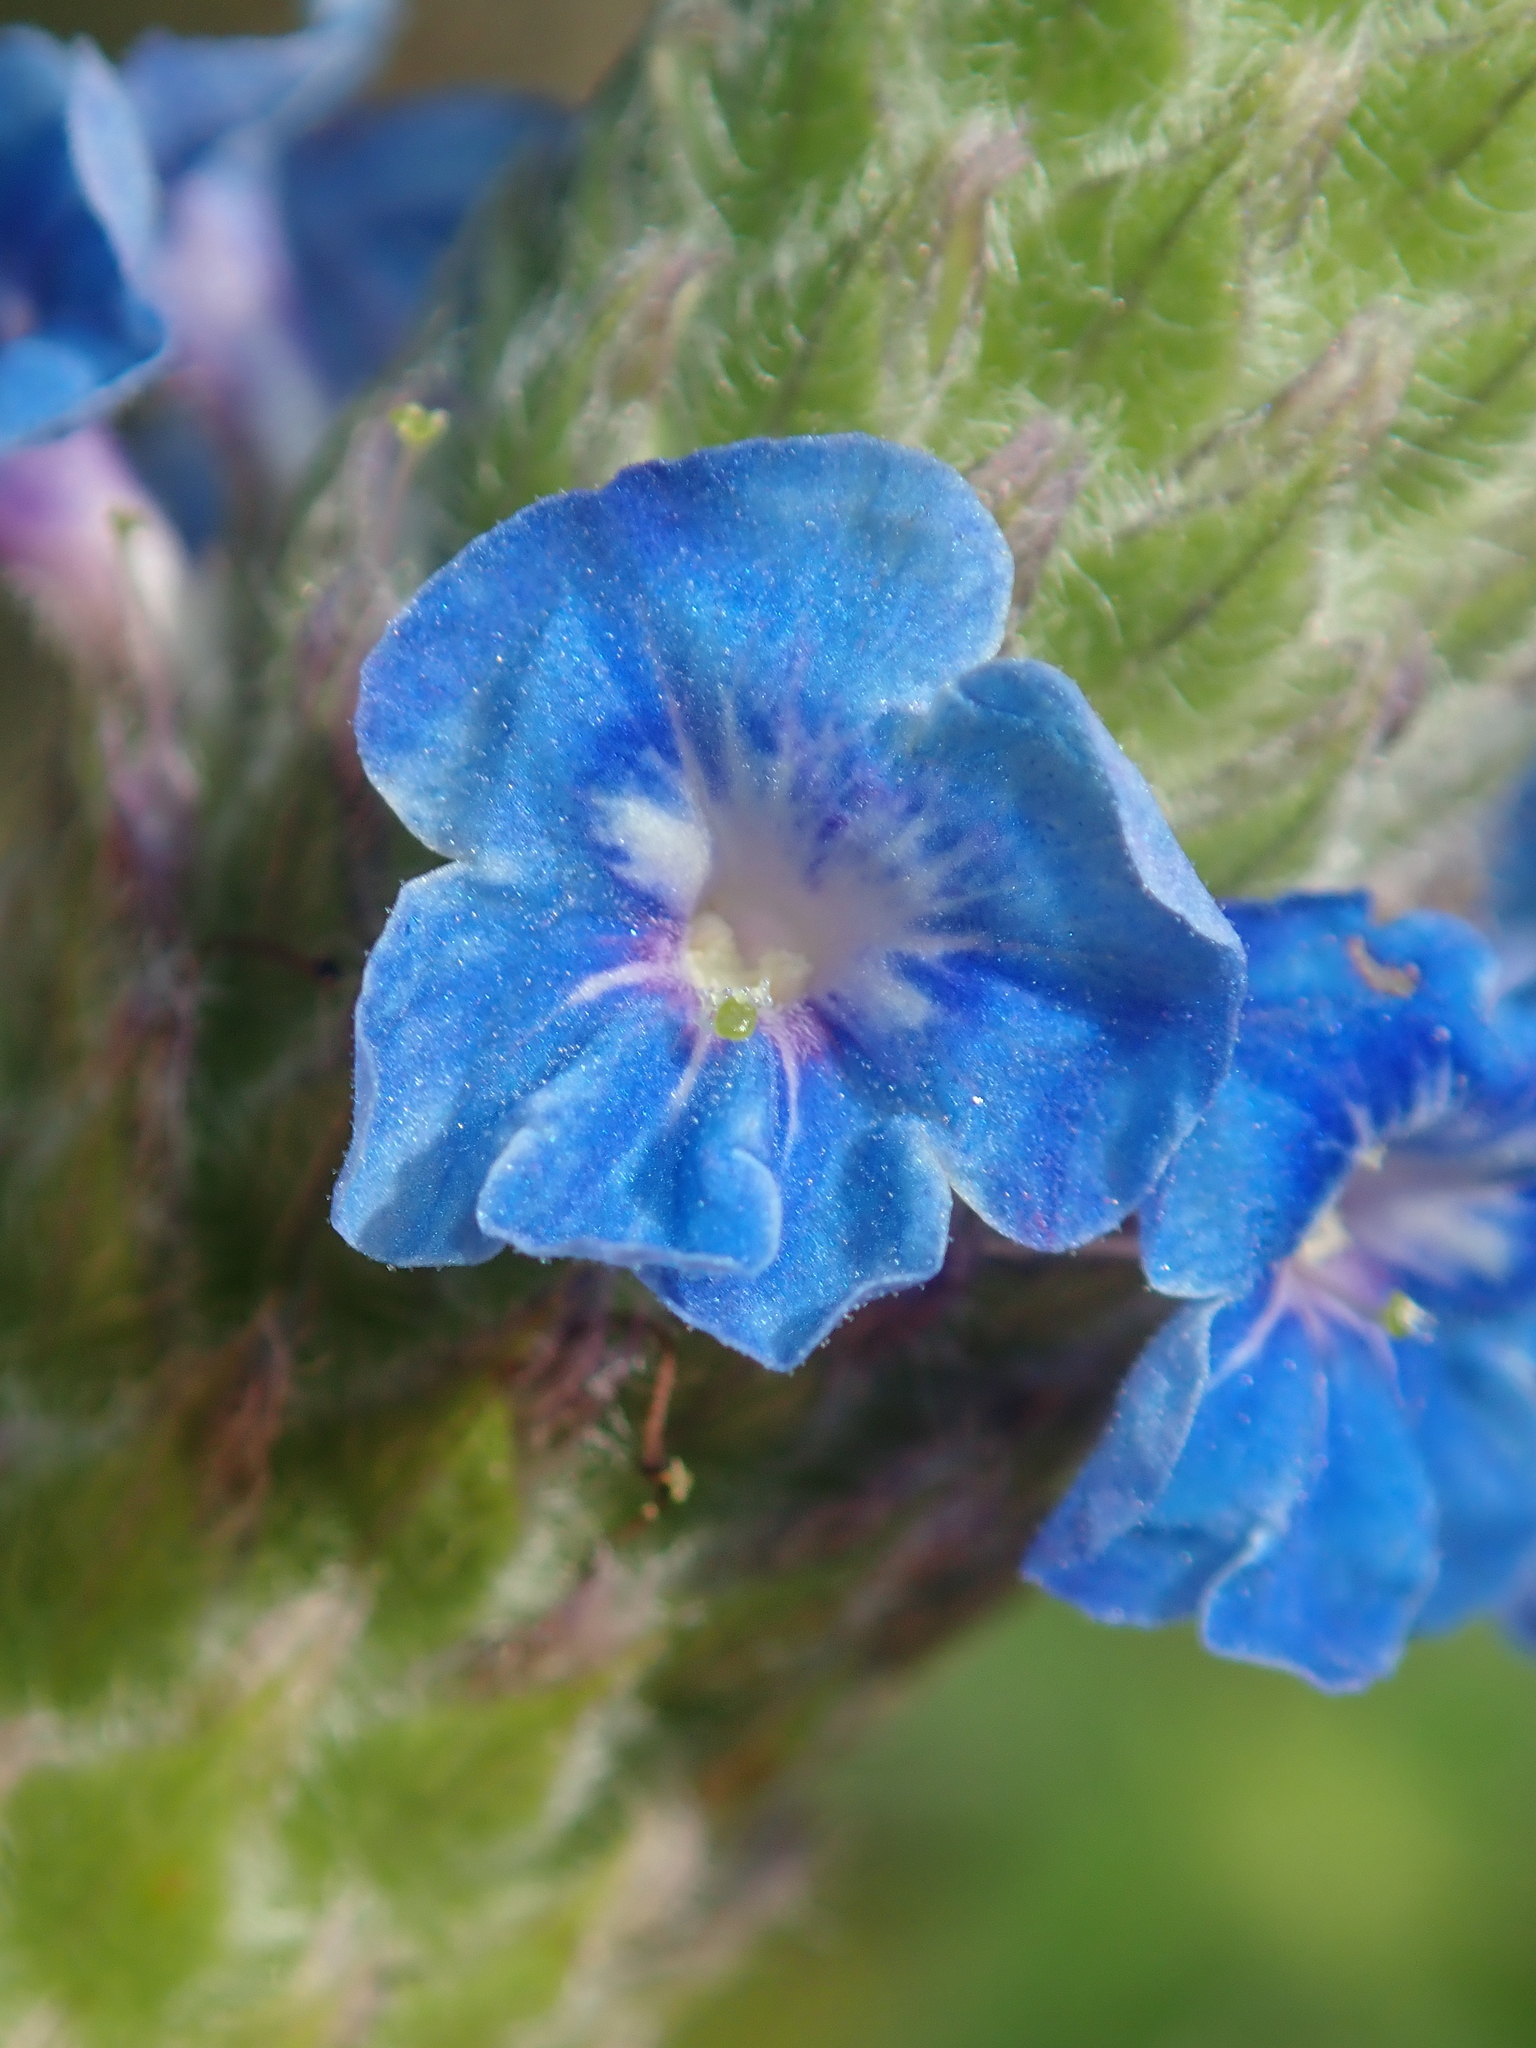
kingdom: Plantae
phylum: Tracheophyta
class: Magnoliopsida
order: Lamiales
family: Verbenaceae
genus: Stachytarpheta
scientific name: Stachytarpheta pachystachya
